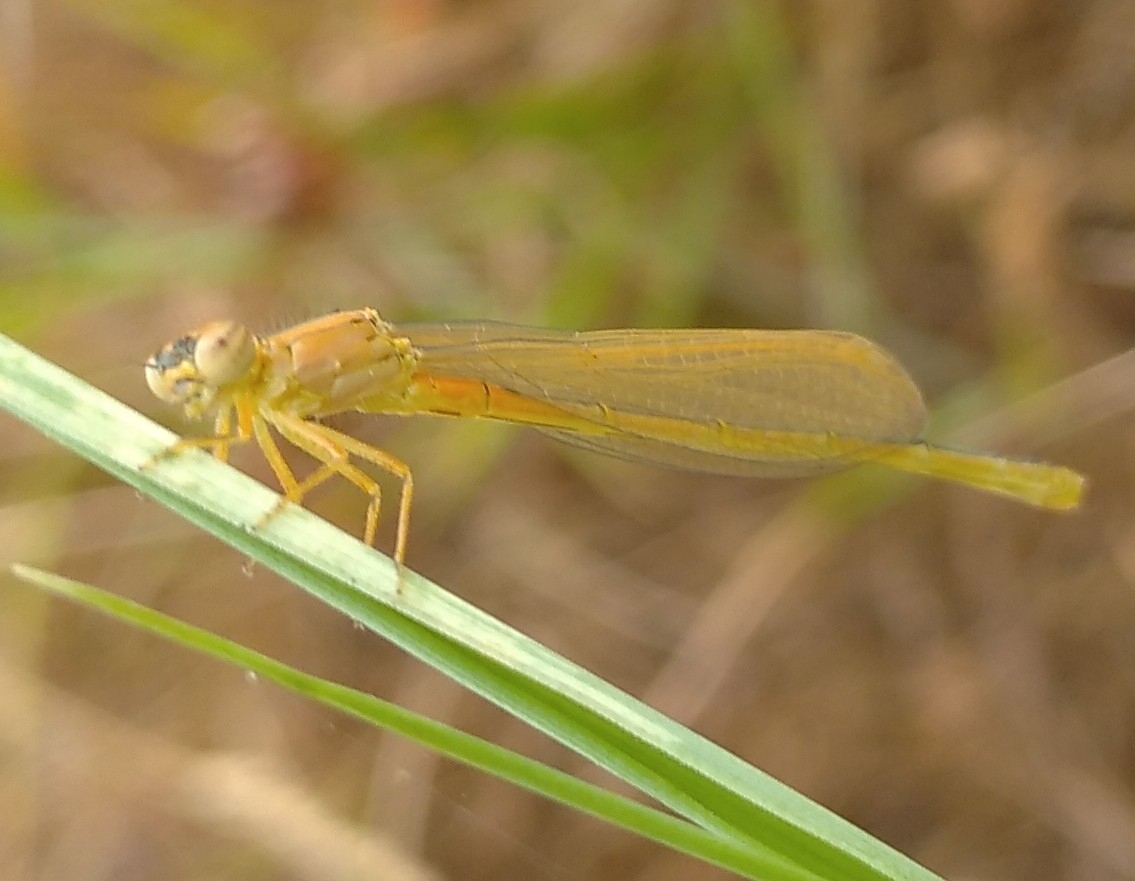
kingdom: Animalia
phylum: Arthropoda
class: Insecta
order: Odonata
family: Coenagrionidae
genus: Ischnura
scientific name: Ischnura pumilio
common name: Scarce blue-tailed damselfly
